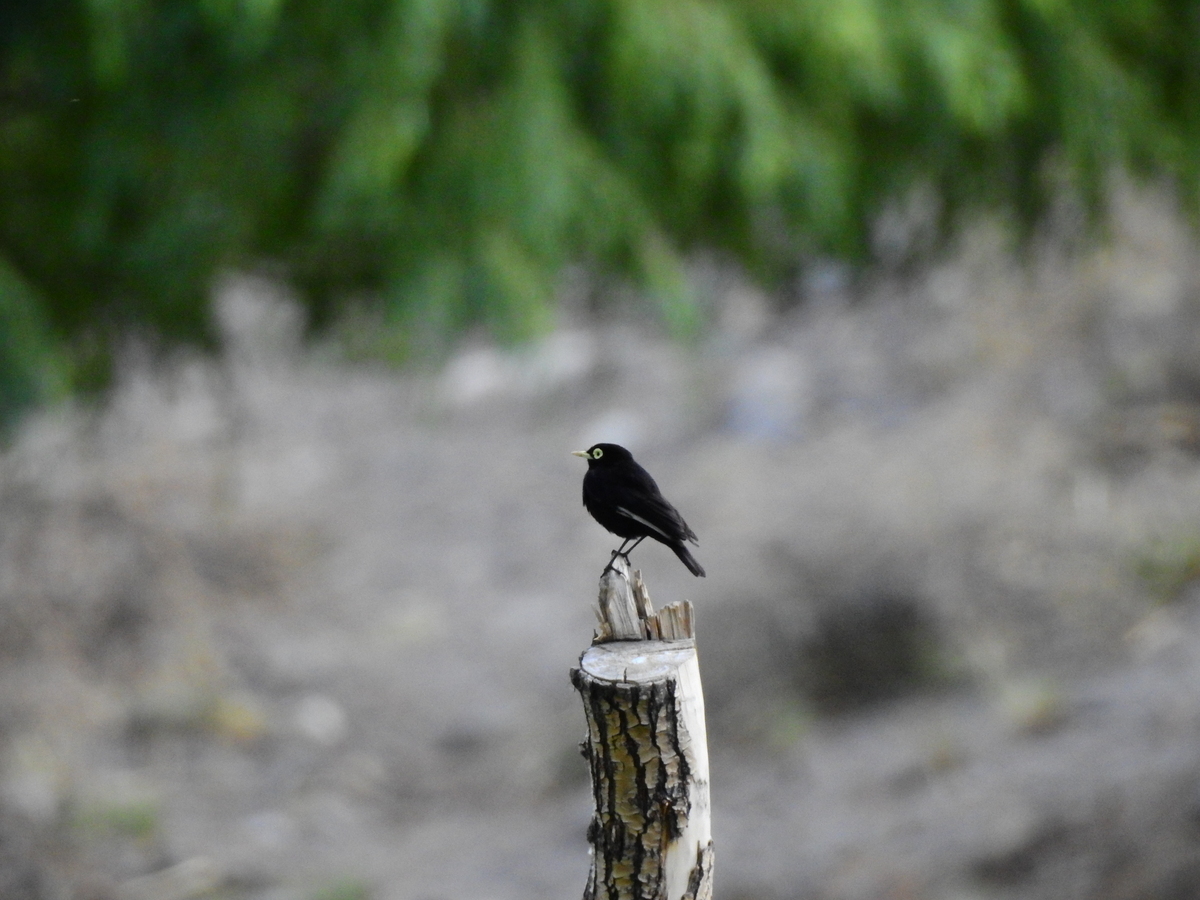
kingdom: Animalia
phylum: Chordata
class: Aves
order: Passeriformes
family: Tyrannidae
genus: Hymenops
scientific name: Hymenops perspicillatus
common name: Spectacled tyrant
